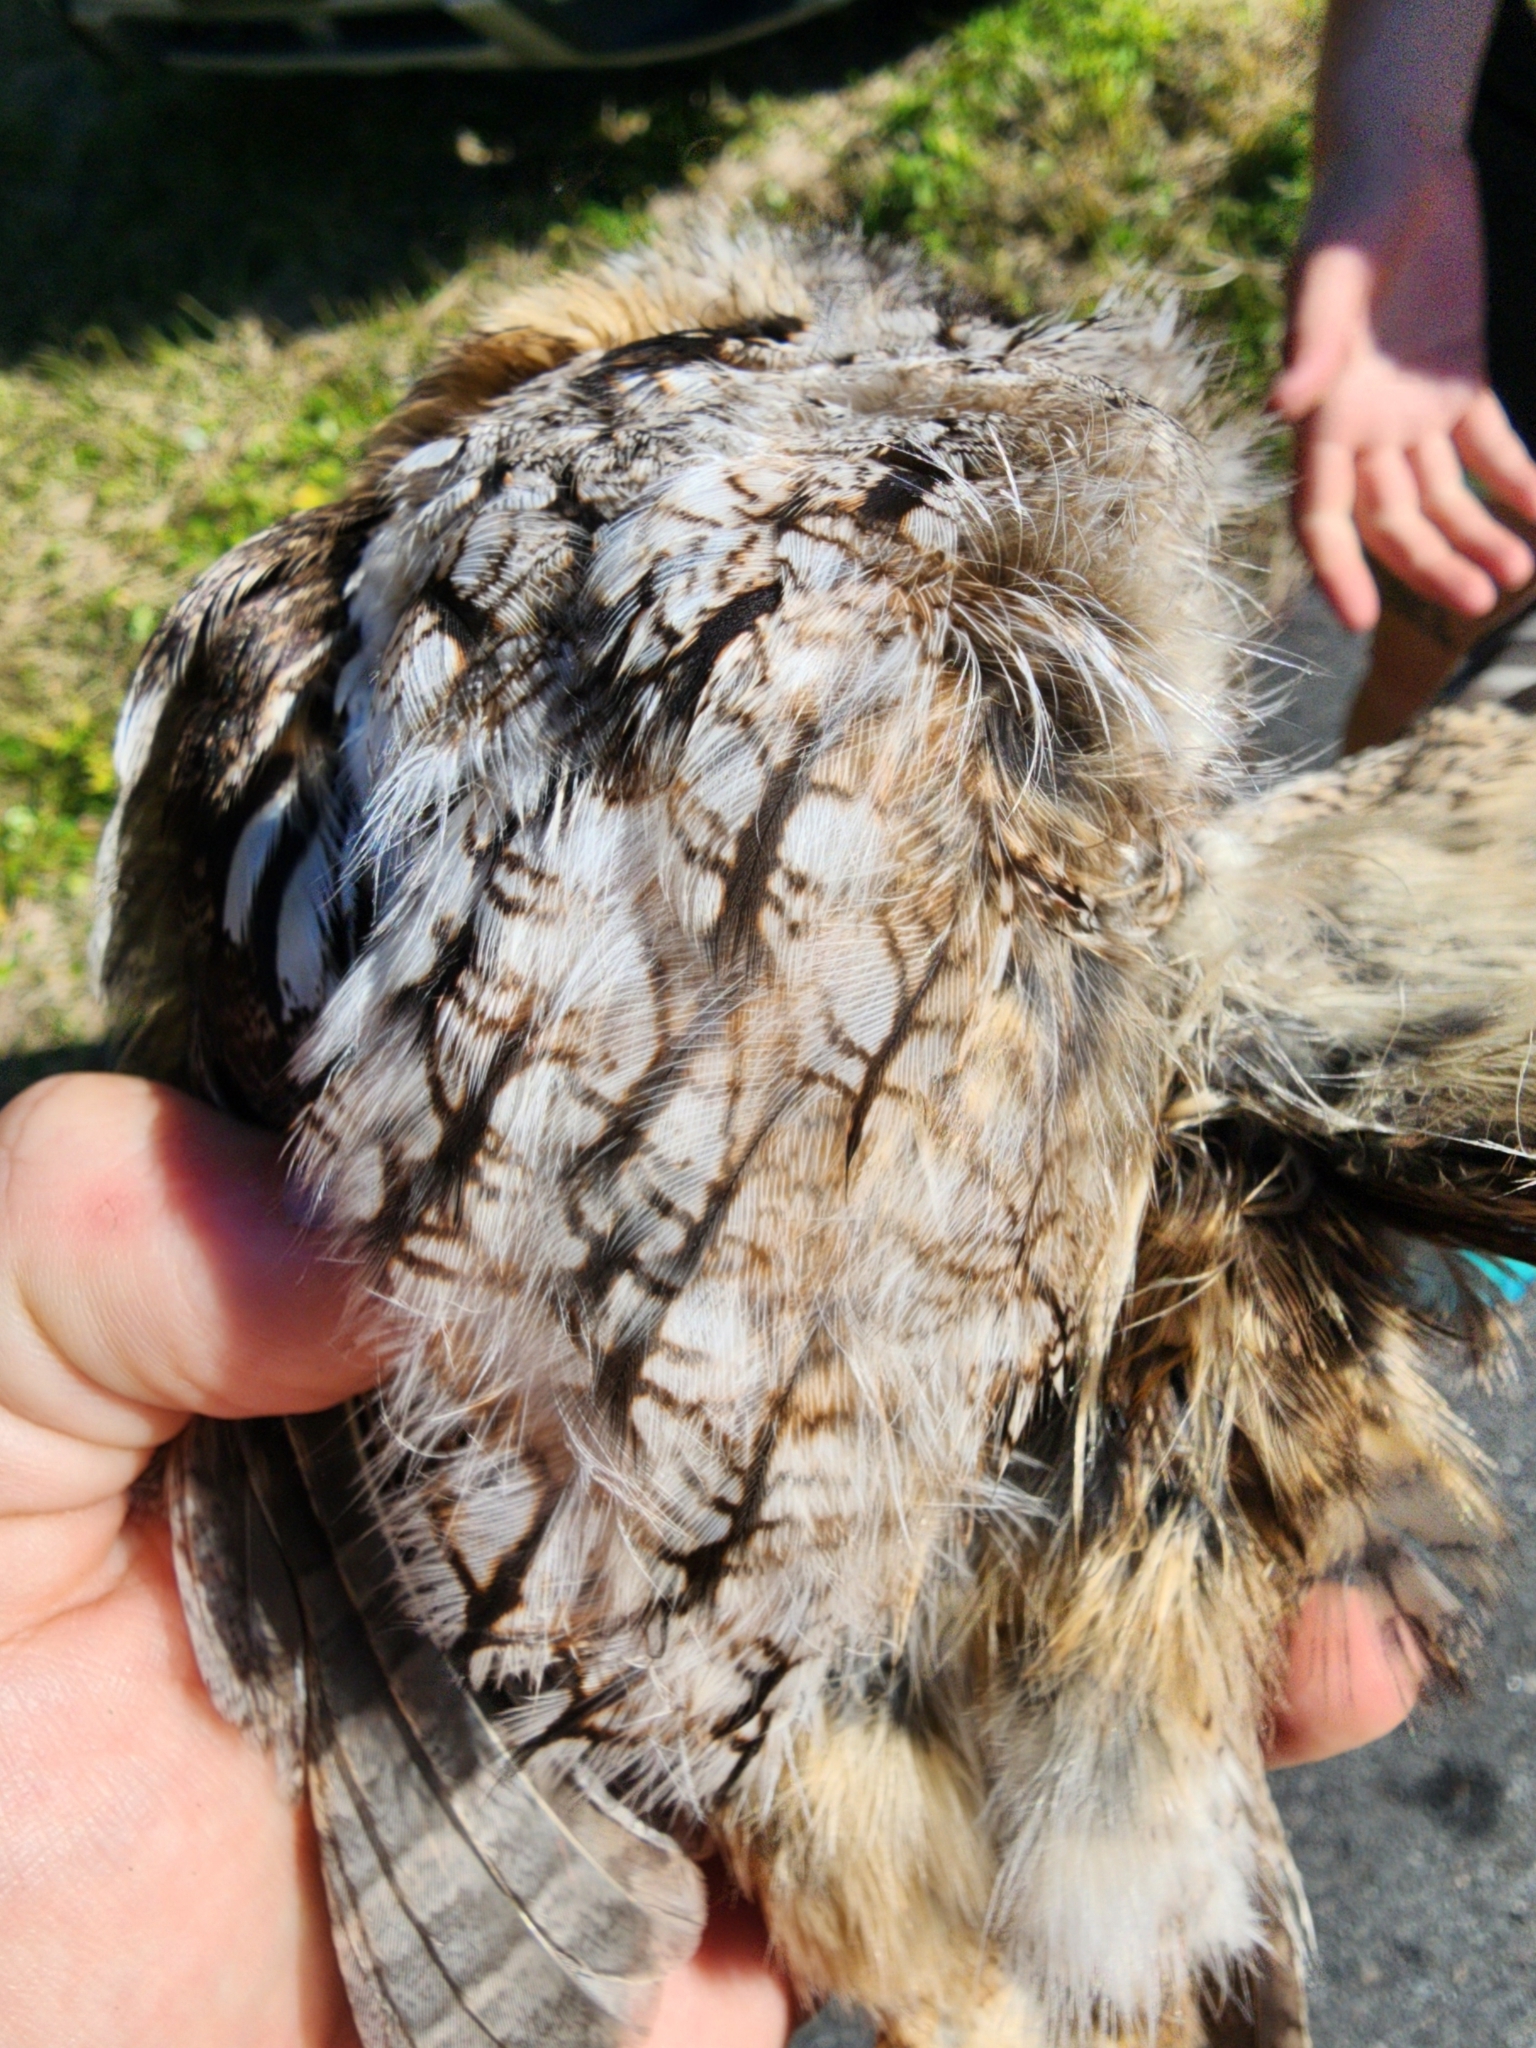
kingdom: Animalia
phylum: Chordata
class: Aves
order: Strigiformes
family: Strigidae
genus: Megascops
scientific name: Megascops asio
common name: Eastern screech-owl
